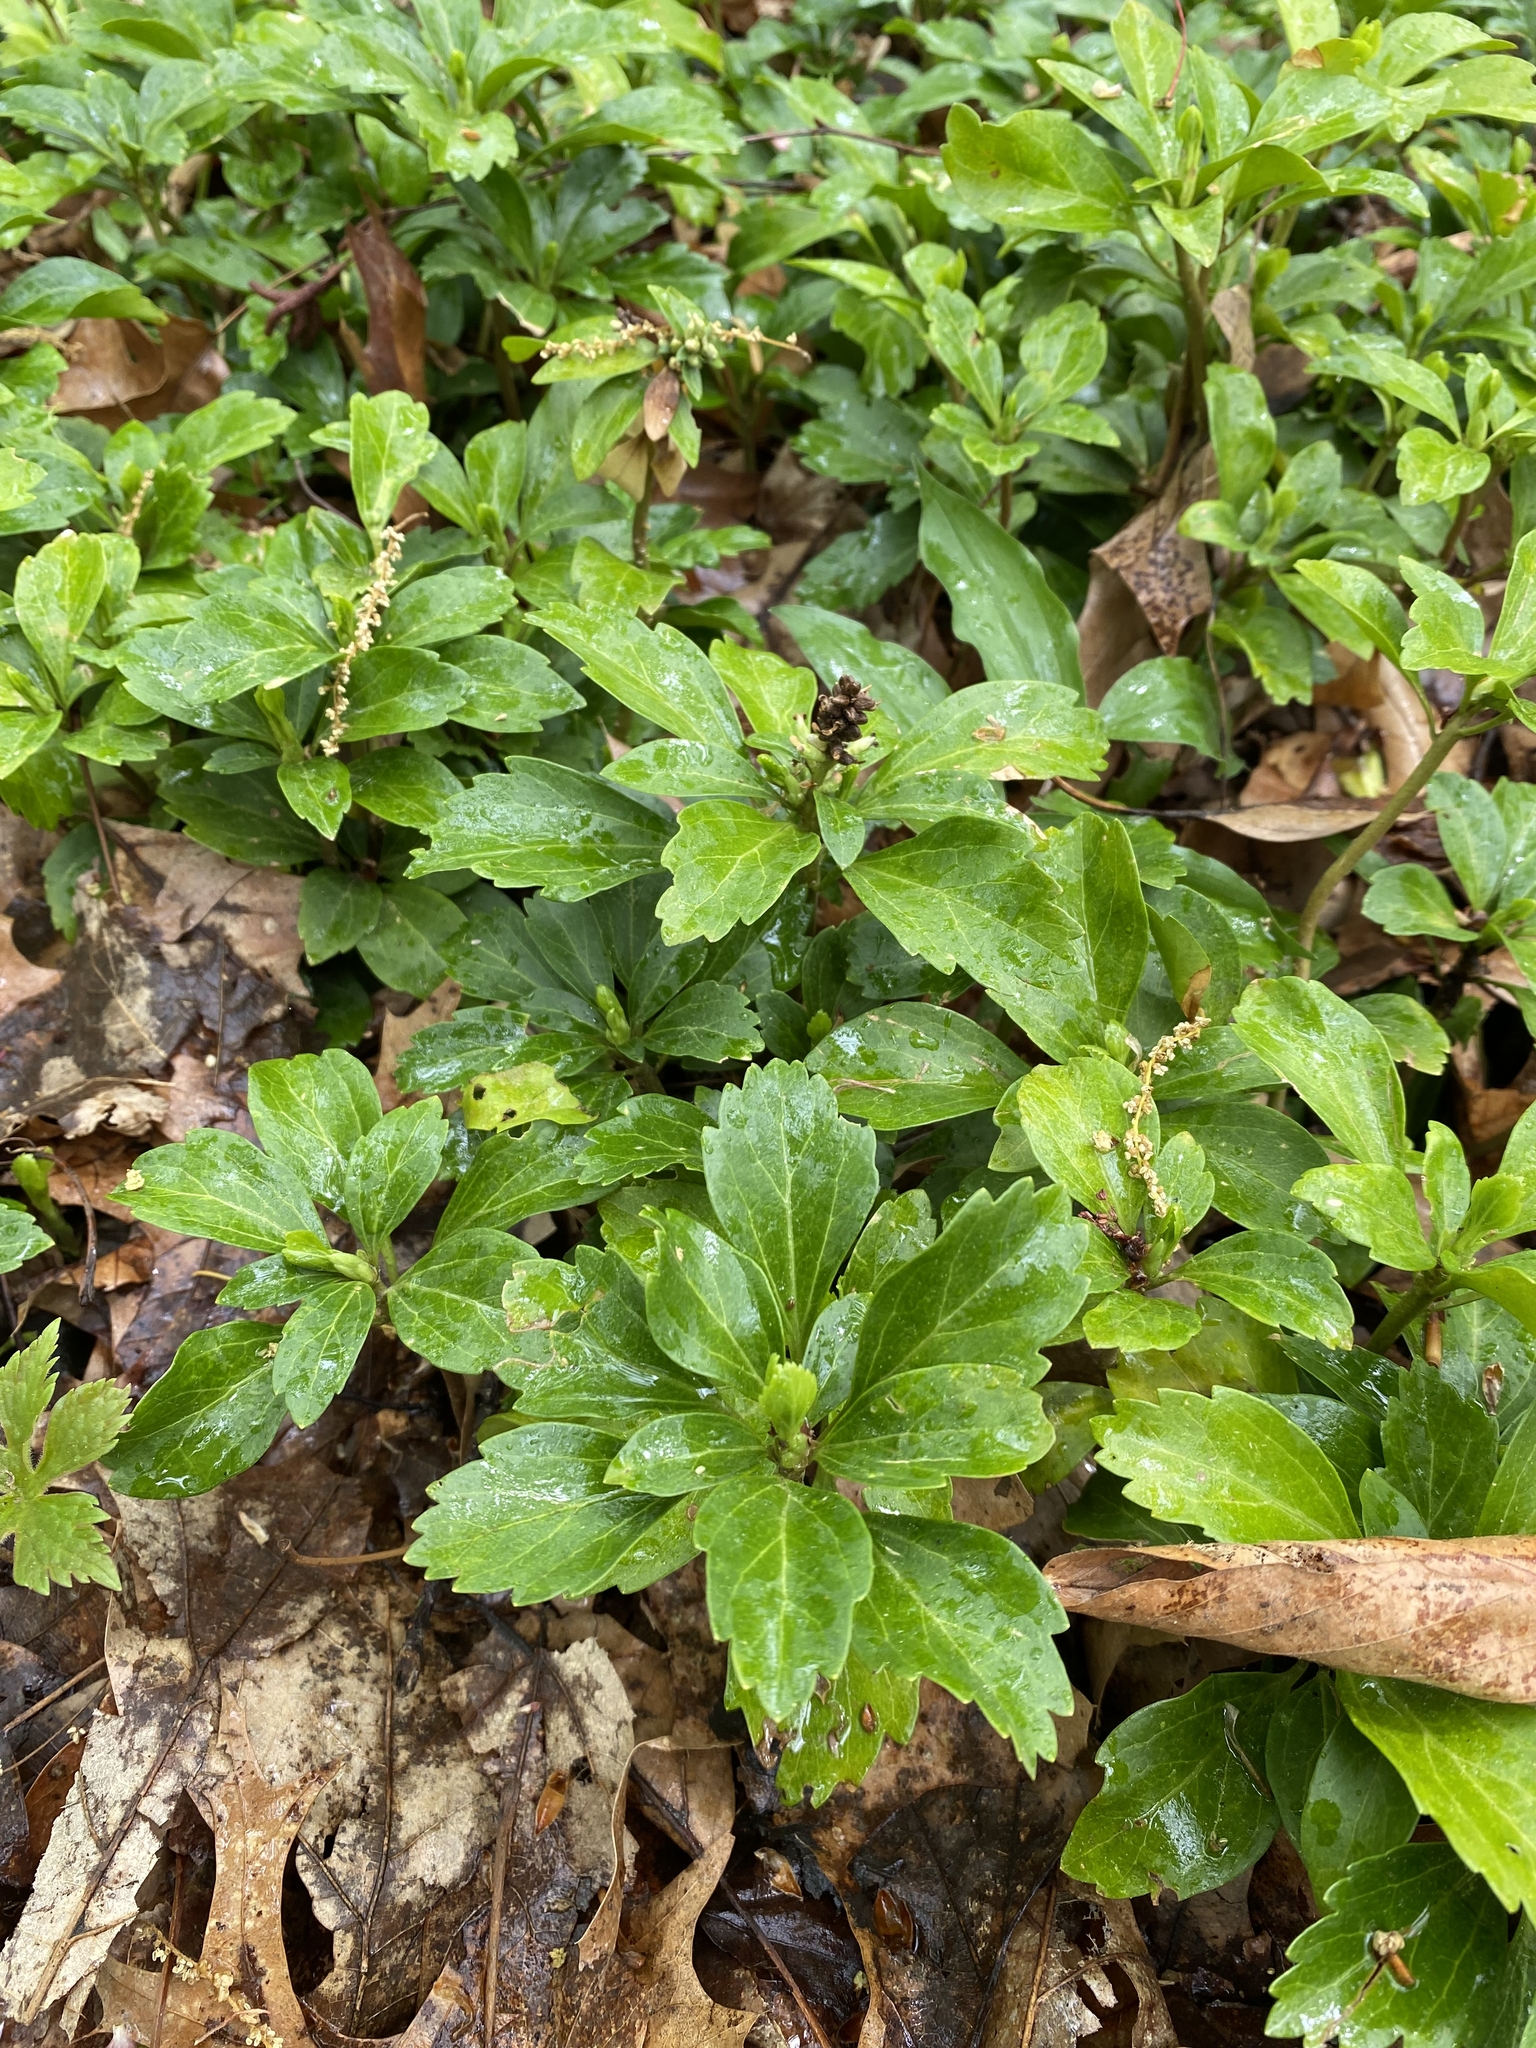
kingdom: Plantae
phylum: Tracheophyta
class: Magnoliopsida
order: Buxales
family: Buxaceae
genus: Pachysandra
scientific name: Pachysandra terminalis
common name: Japanese pachysandra
